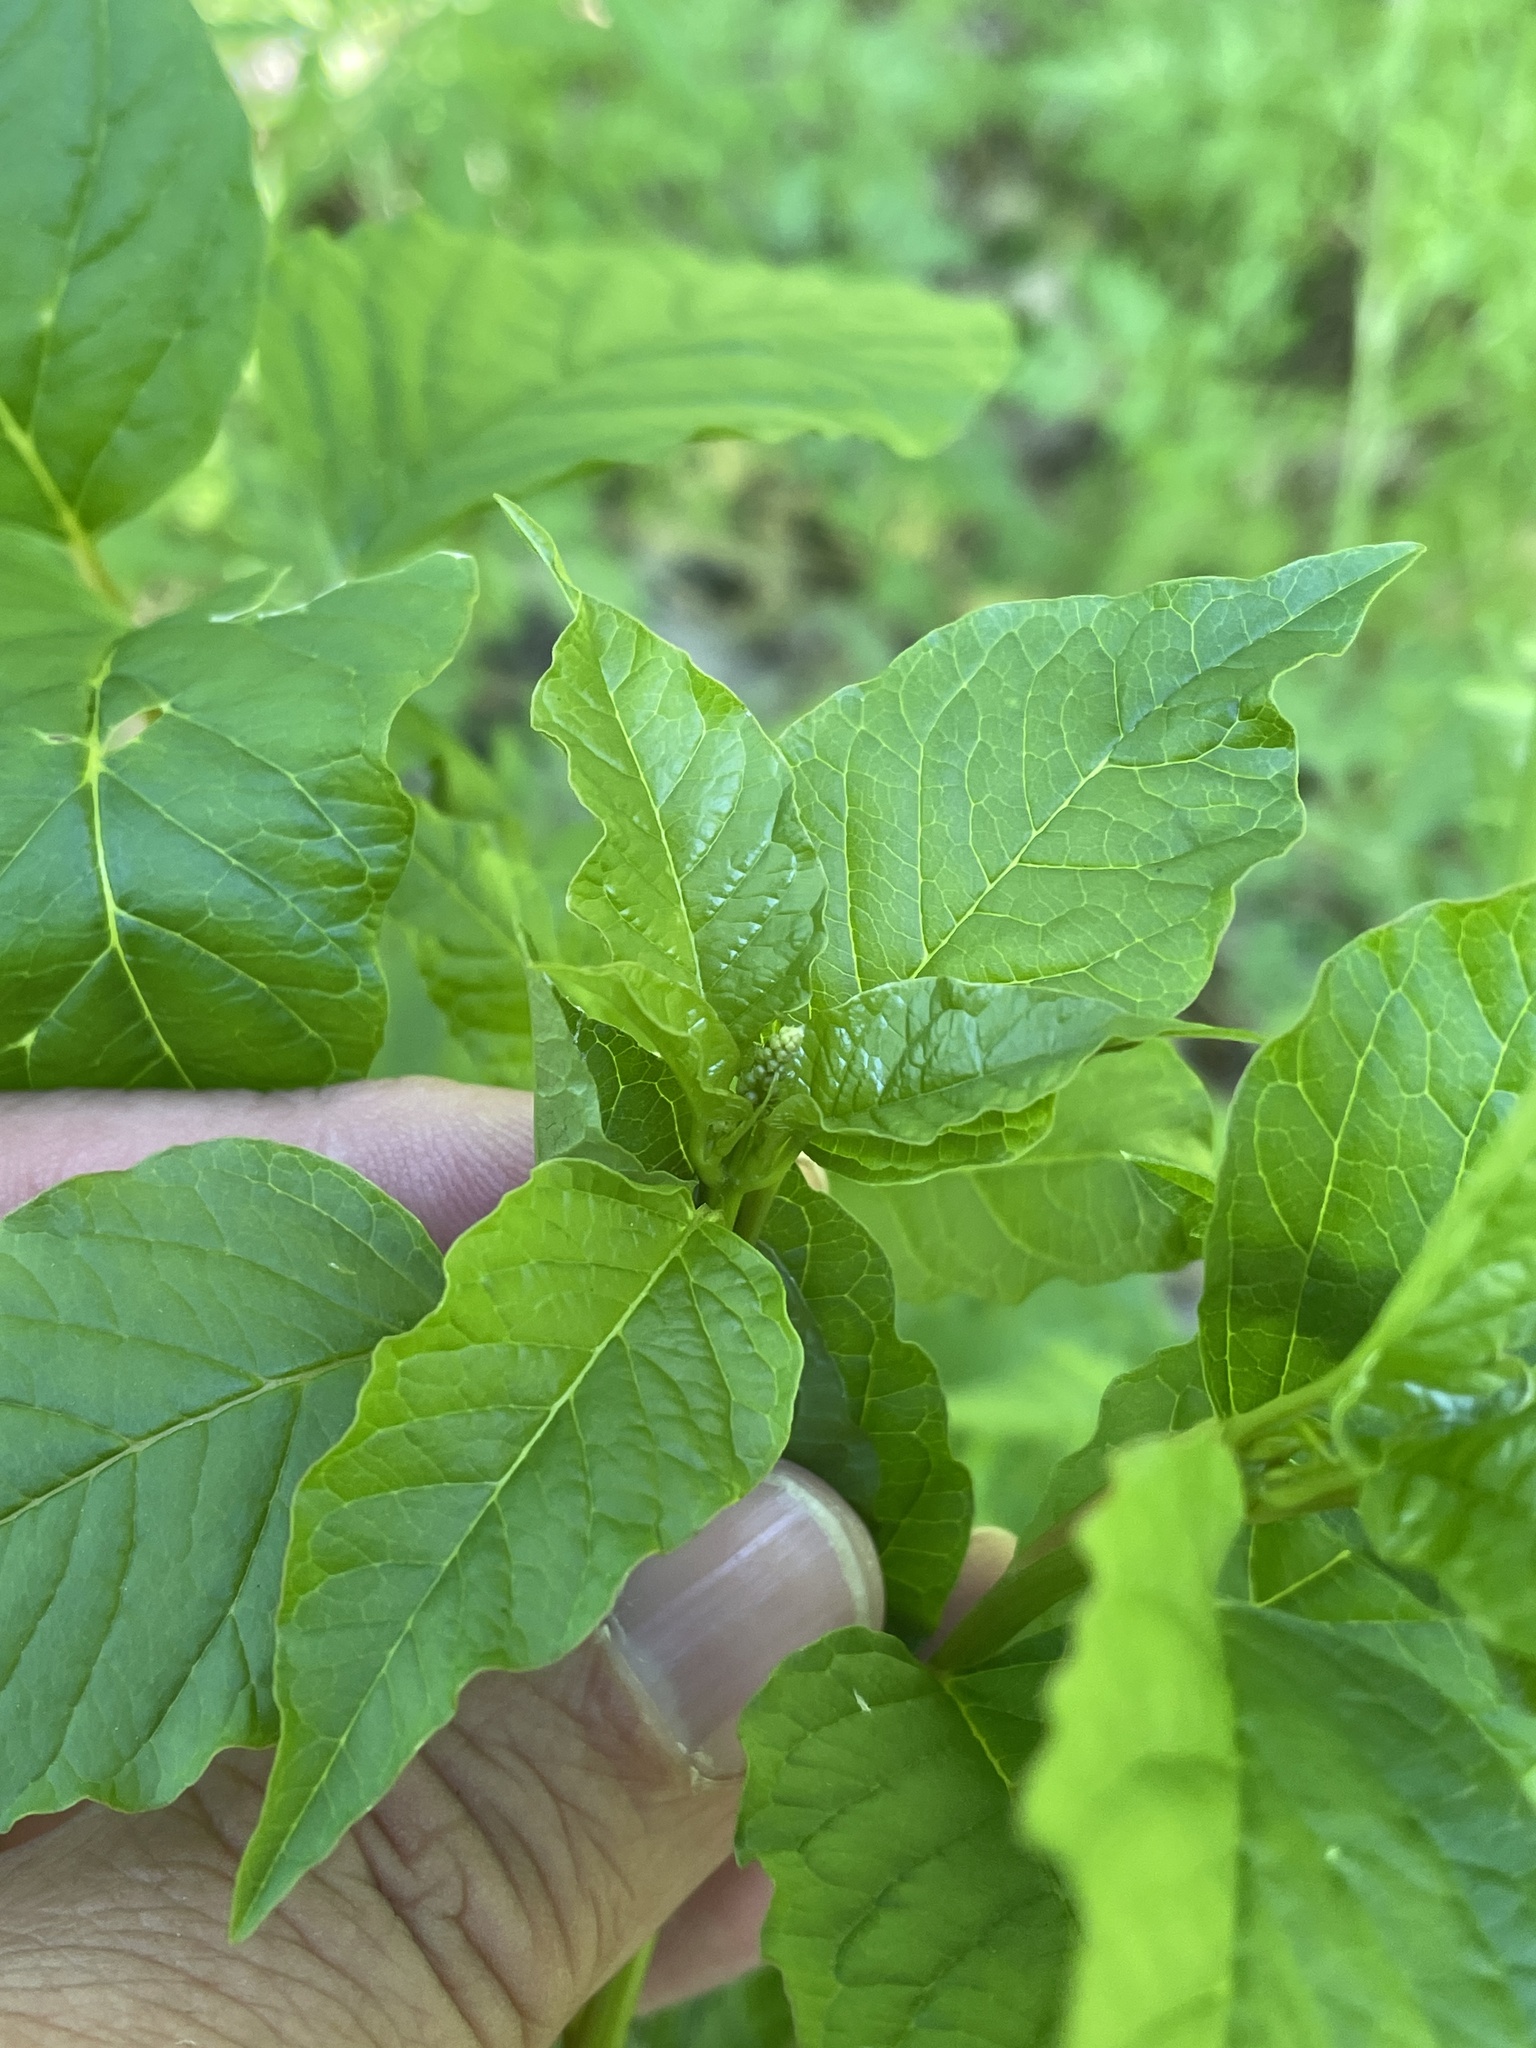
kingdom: Plantae
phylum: Tracheophyta
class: Magnoliopsida
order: Caryophyllales
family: Phytolaccaceae
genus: Rivina
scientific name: Rivina humilis
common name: Rougeplant
